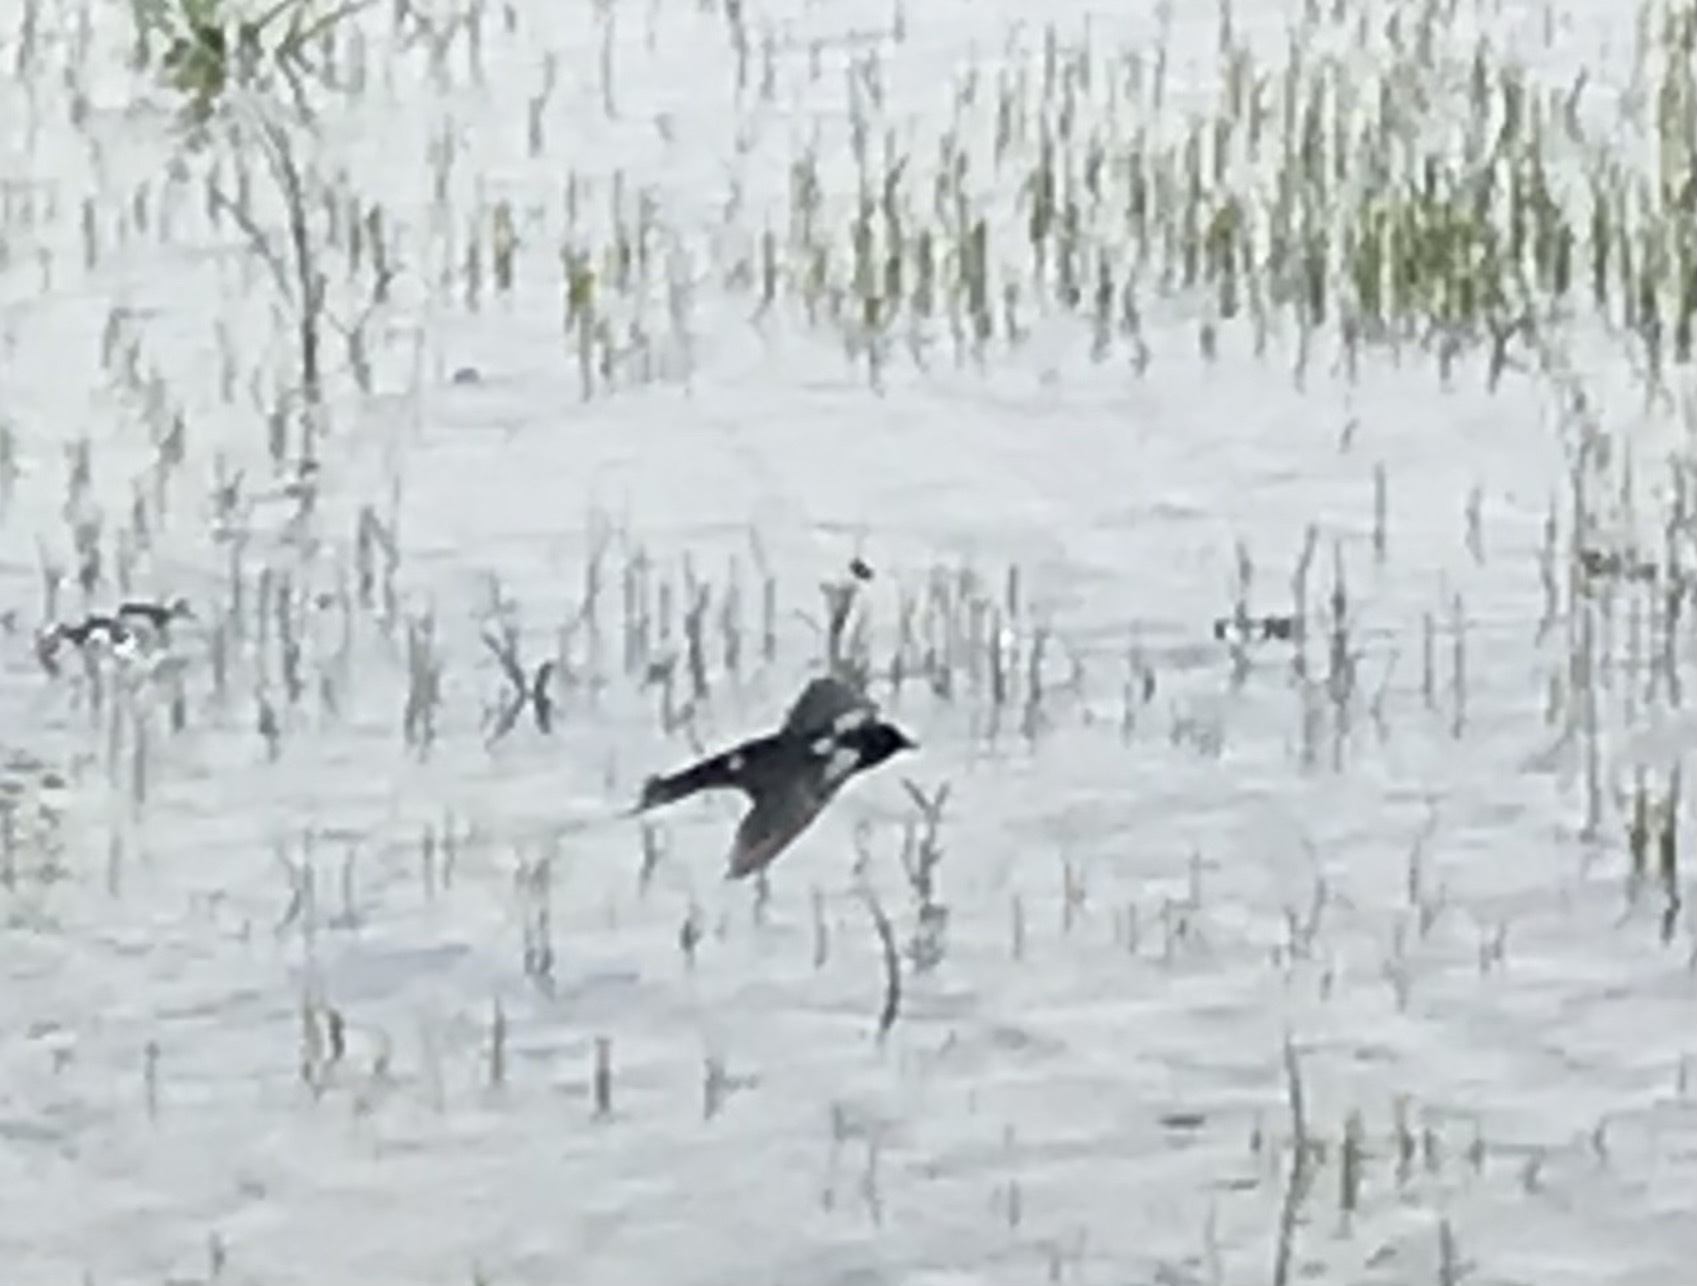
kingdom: Animalia
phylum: Chordata
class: Aves
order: Passeriformes
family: Hirundinidae
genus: Hirundo
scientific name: Hirundo rustica
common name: Barn swallow
